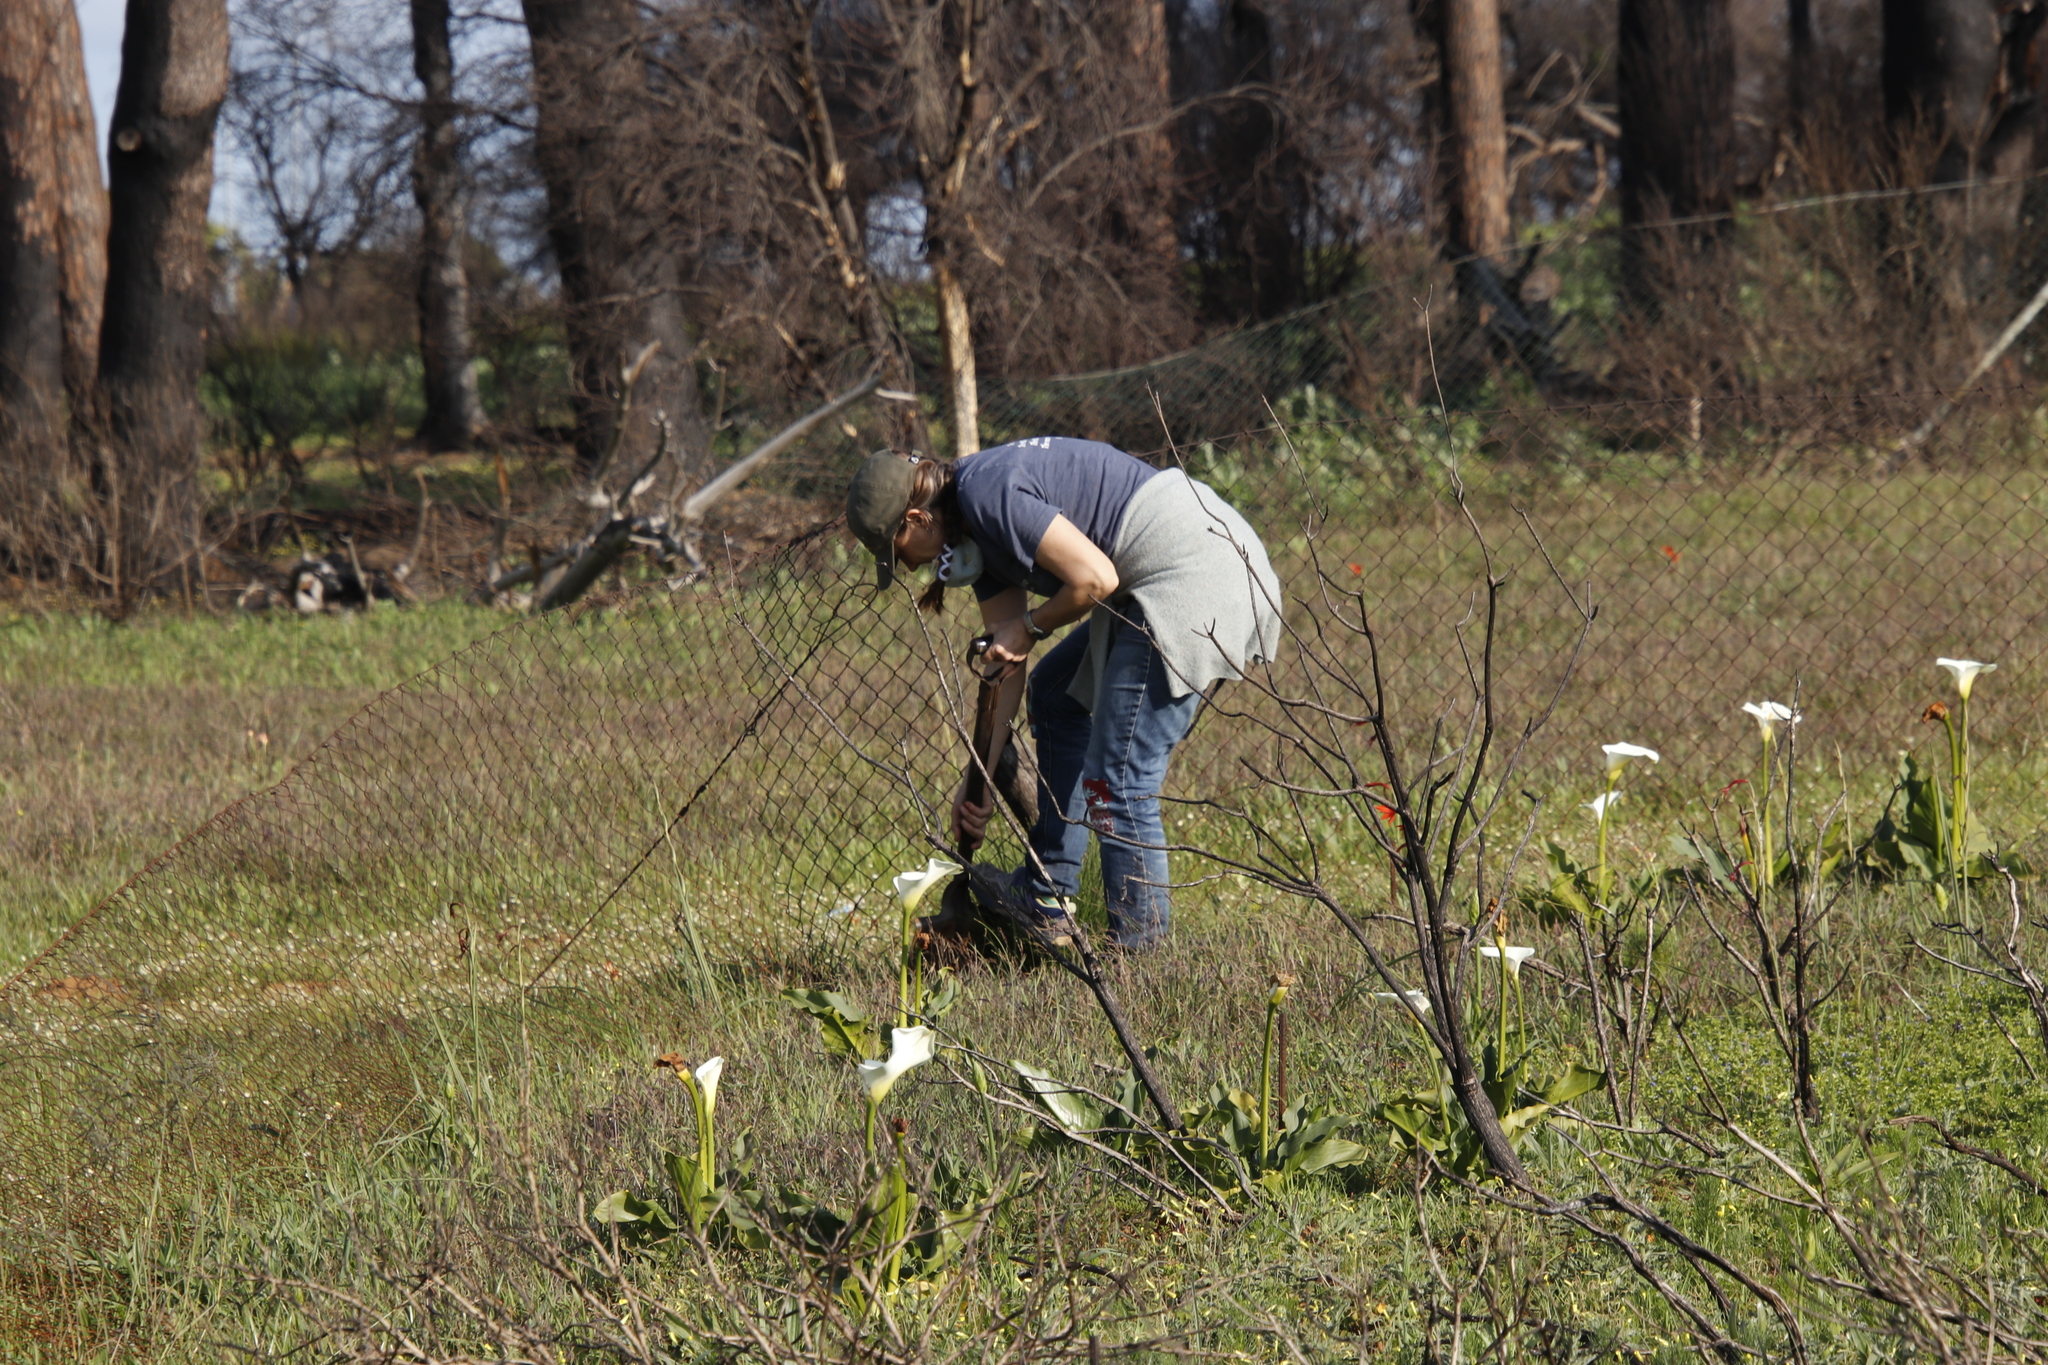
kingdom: Plantae
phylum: Tracheophyta
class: Liliopsida
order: Alismatales
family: Araceae
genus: Zantedeschia
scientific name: Zantedeschia aethiopica
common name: Altar-lily
